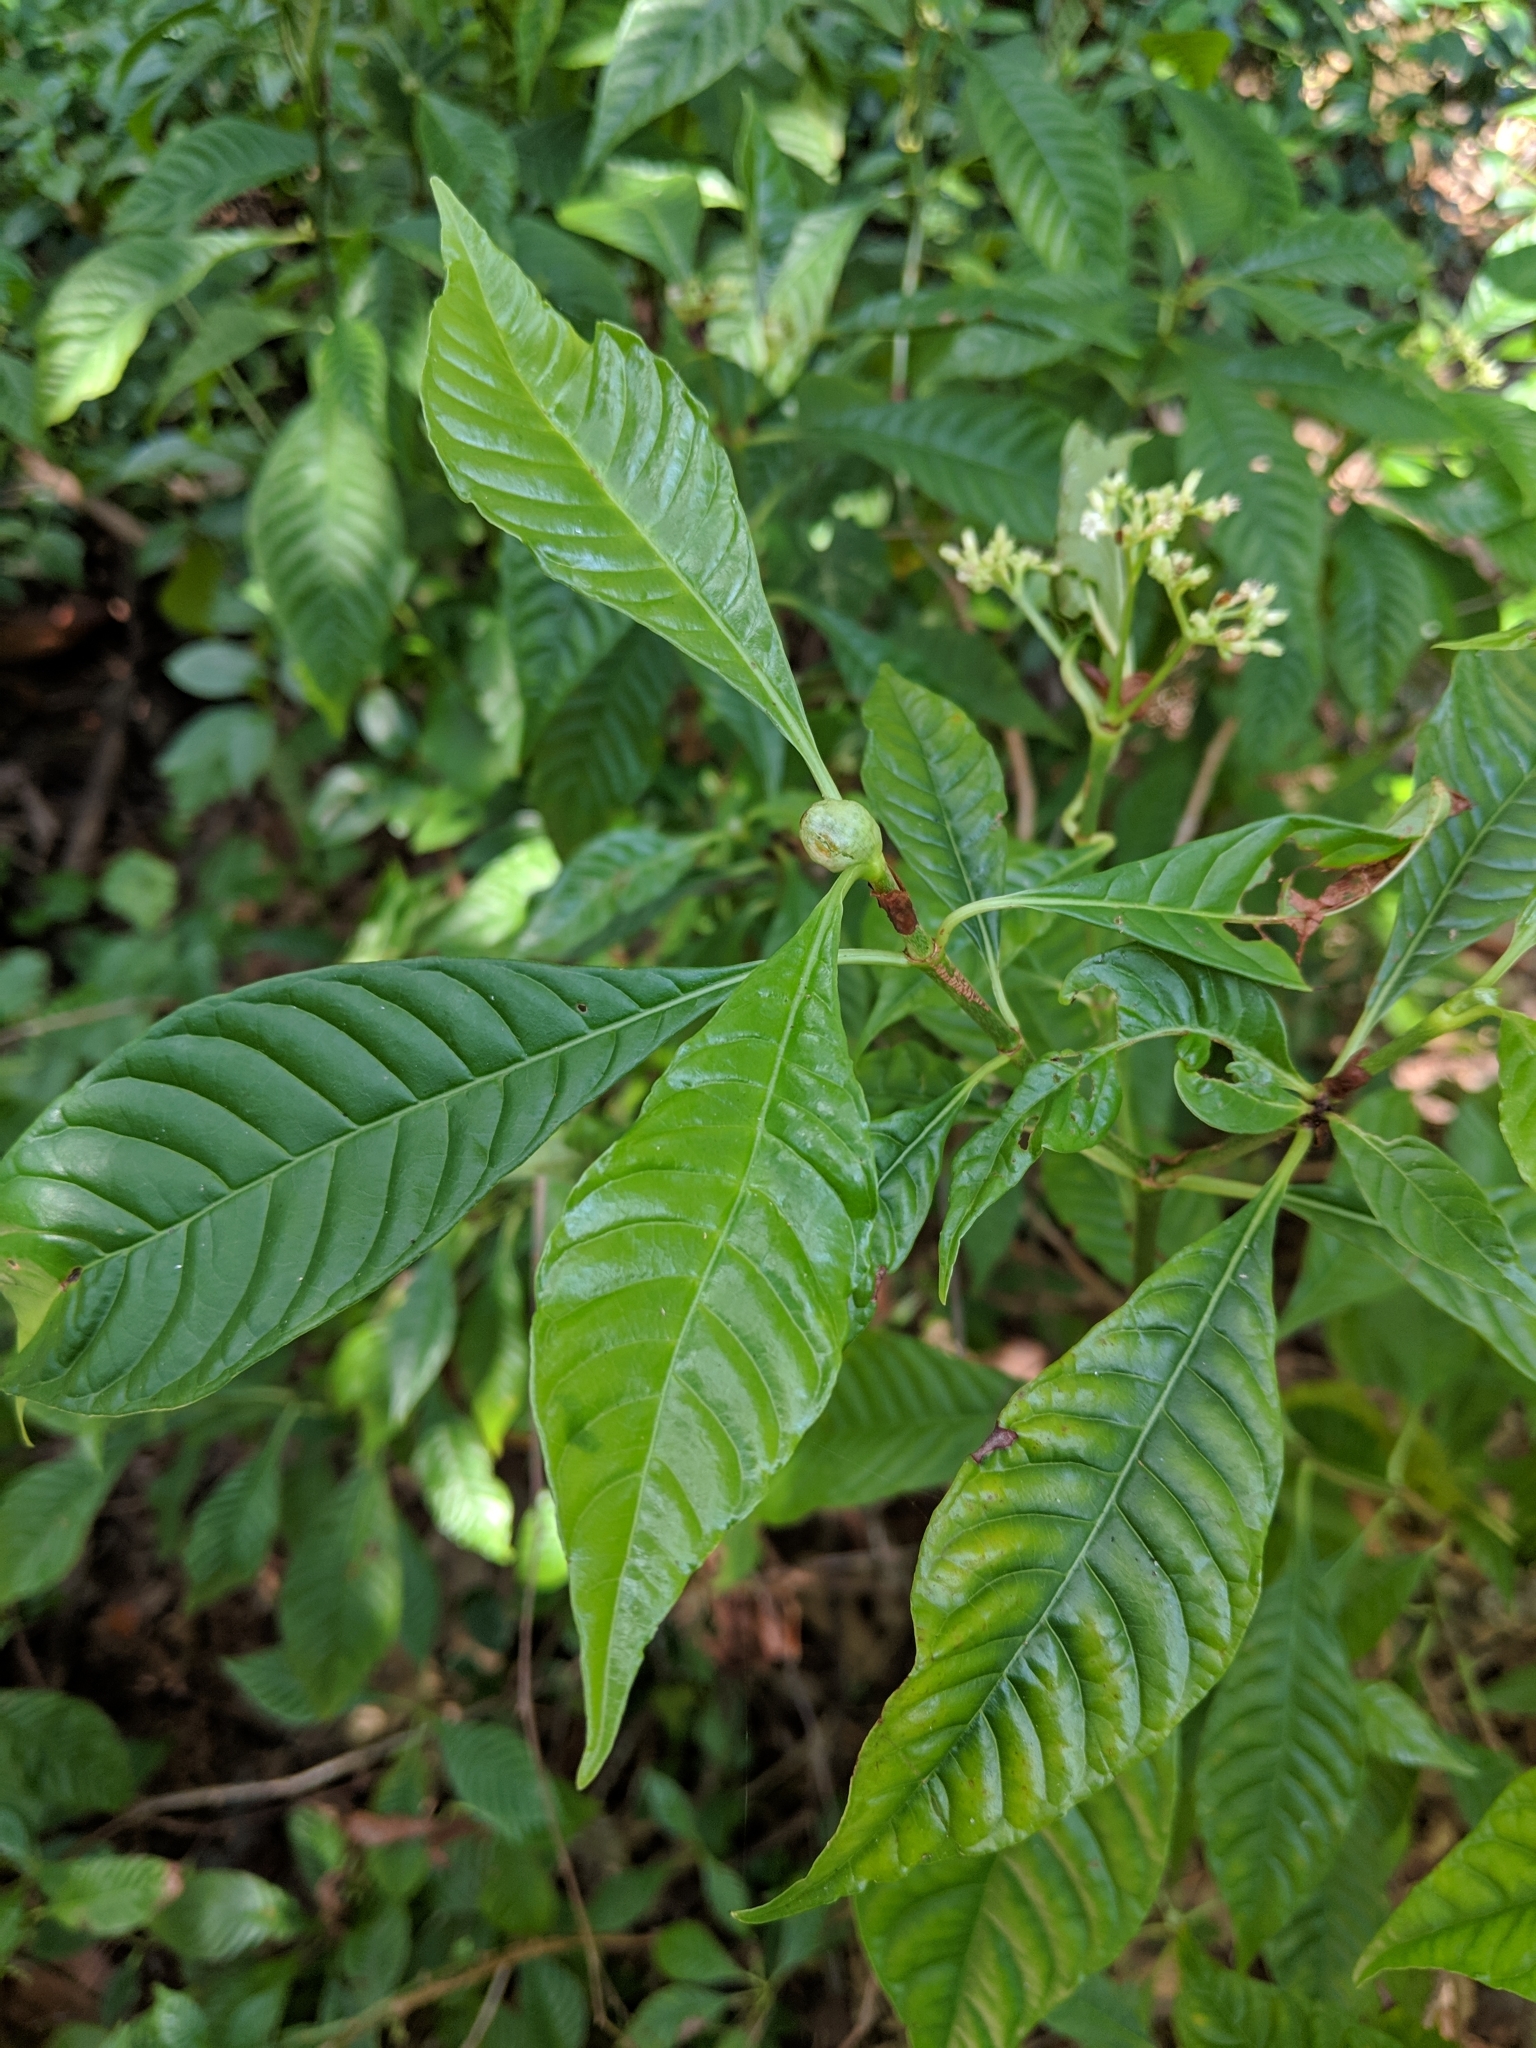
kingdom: Plantae
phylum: Tracheophyta
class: Magnoliopsida
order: Gentianales
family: Rubiaceae
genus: Psychotria
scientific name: Psychotria nervosa
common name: Bastard cankerberry
